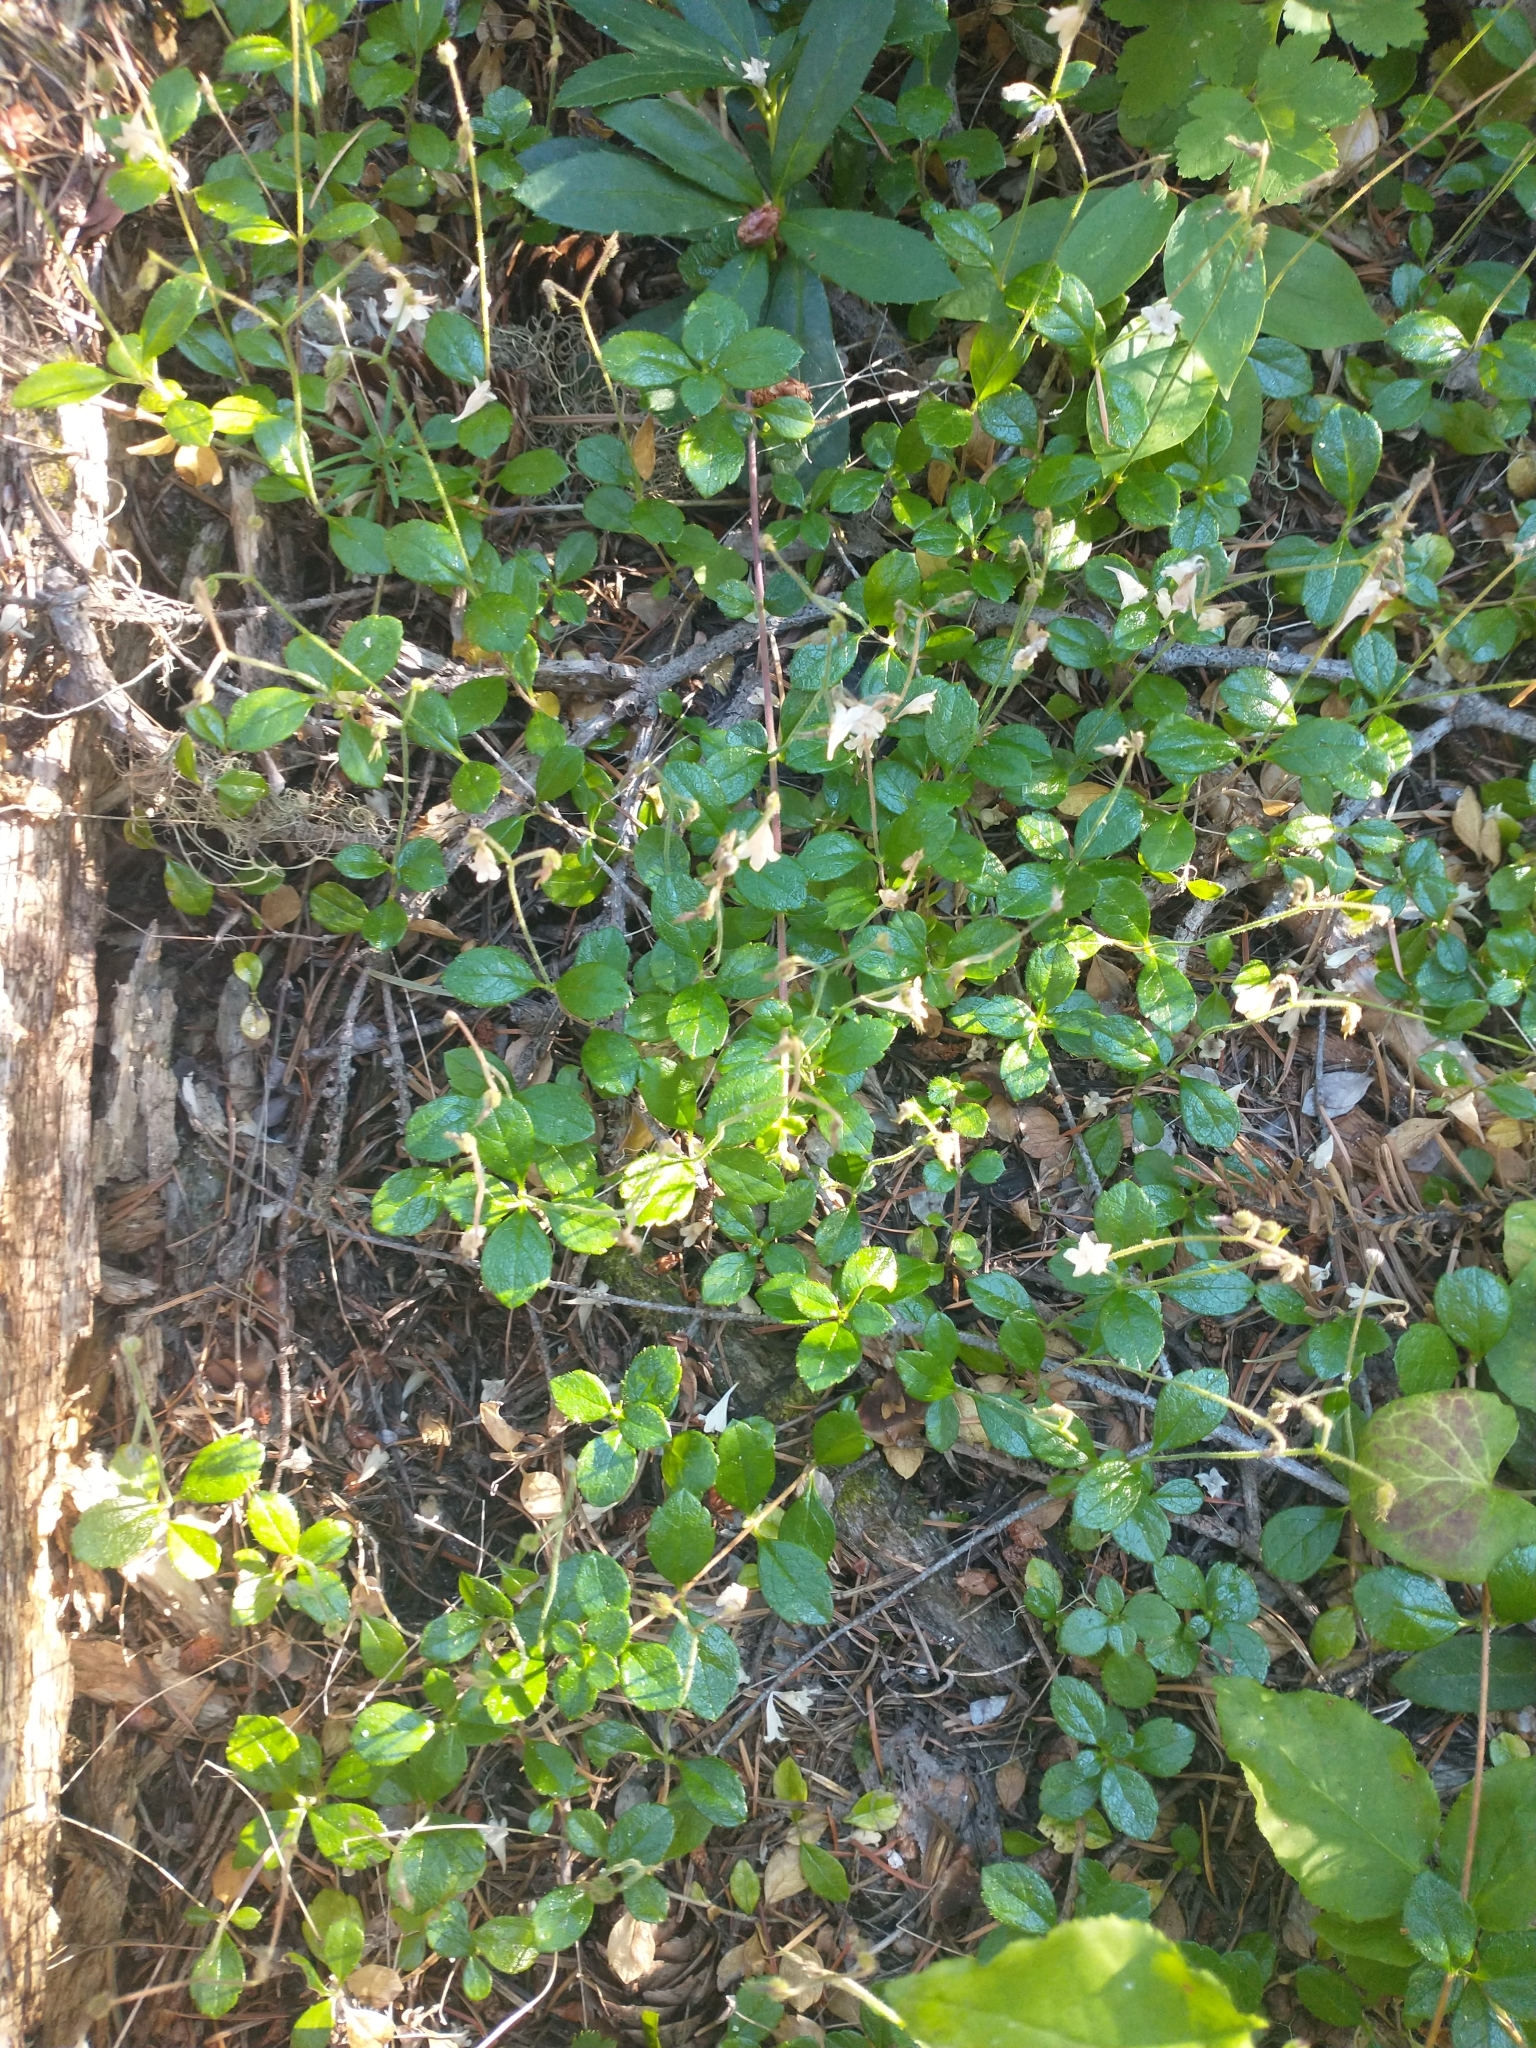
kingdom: Plantae
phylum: Tracheophyta
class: Magnoliopsida
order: Dipsacales
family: Caprifoliaceae
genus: Linnaea
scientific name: Linnaea borealis
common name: Twinflower
